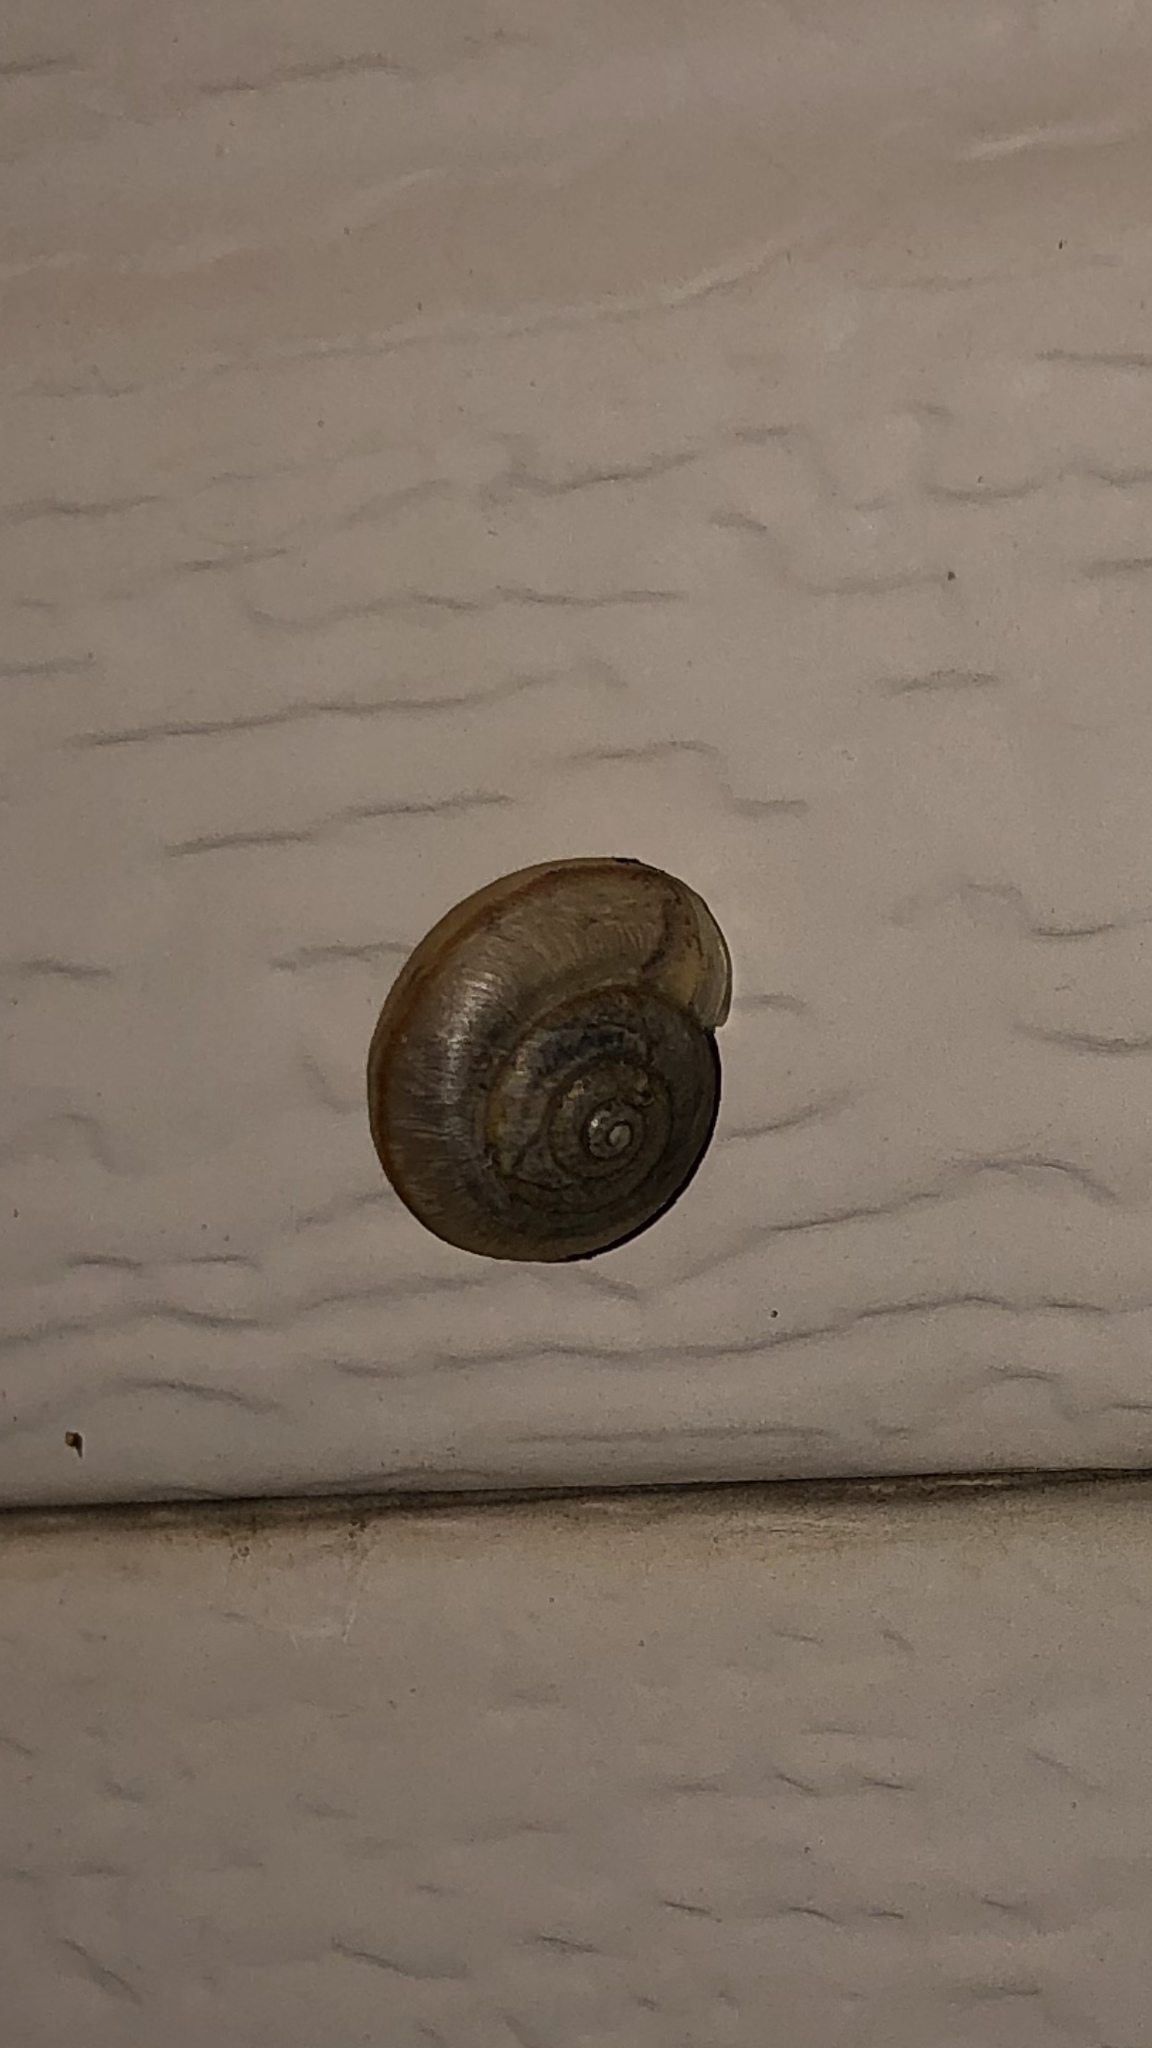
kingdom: Animalia
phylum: Mollusca
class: Gastropoda
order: Stylommatophora
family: Camaenidae
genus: Bradybaena
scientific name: Bradybaena similaris
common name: Asian trampsnail
